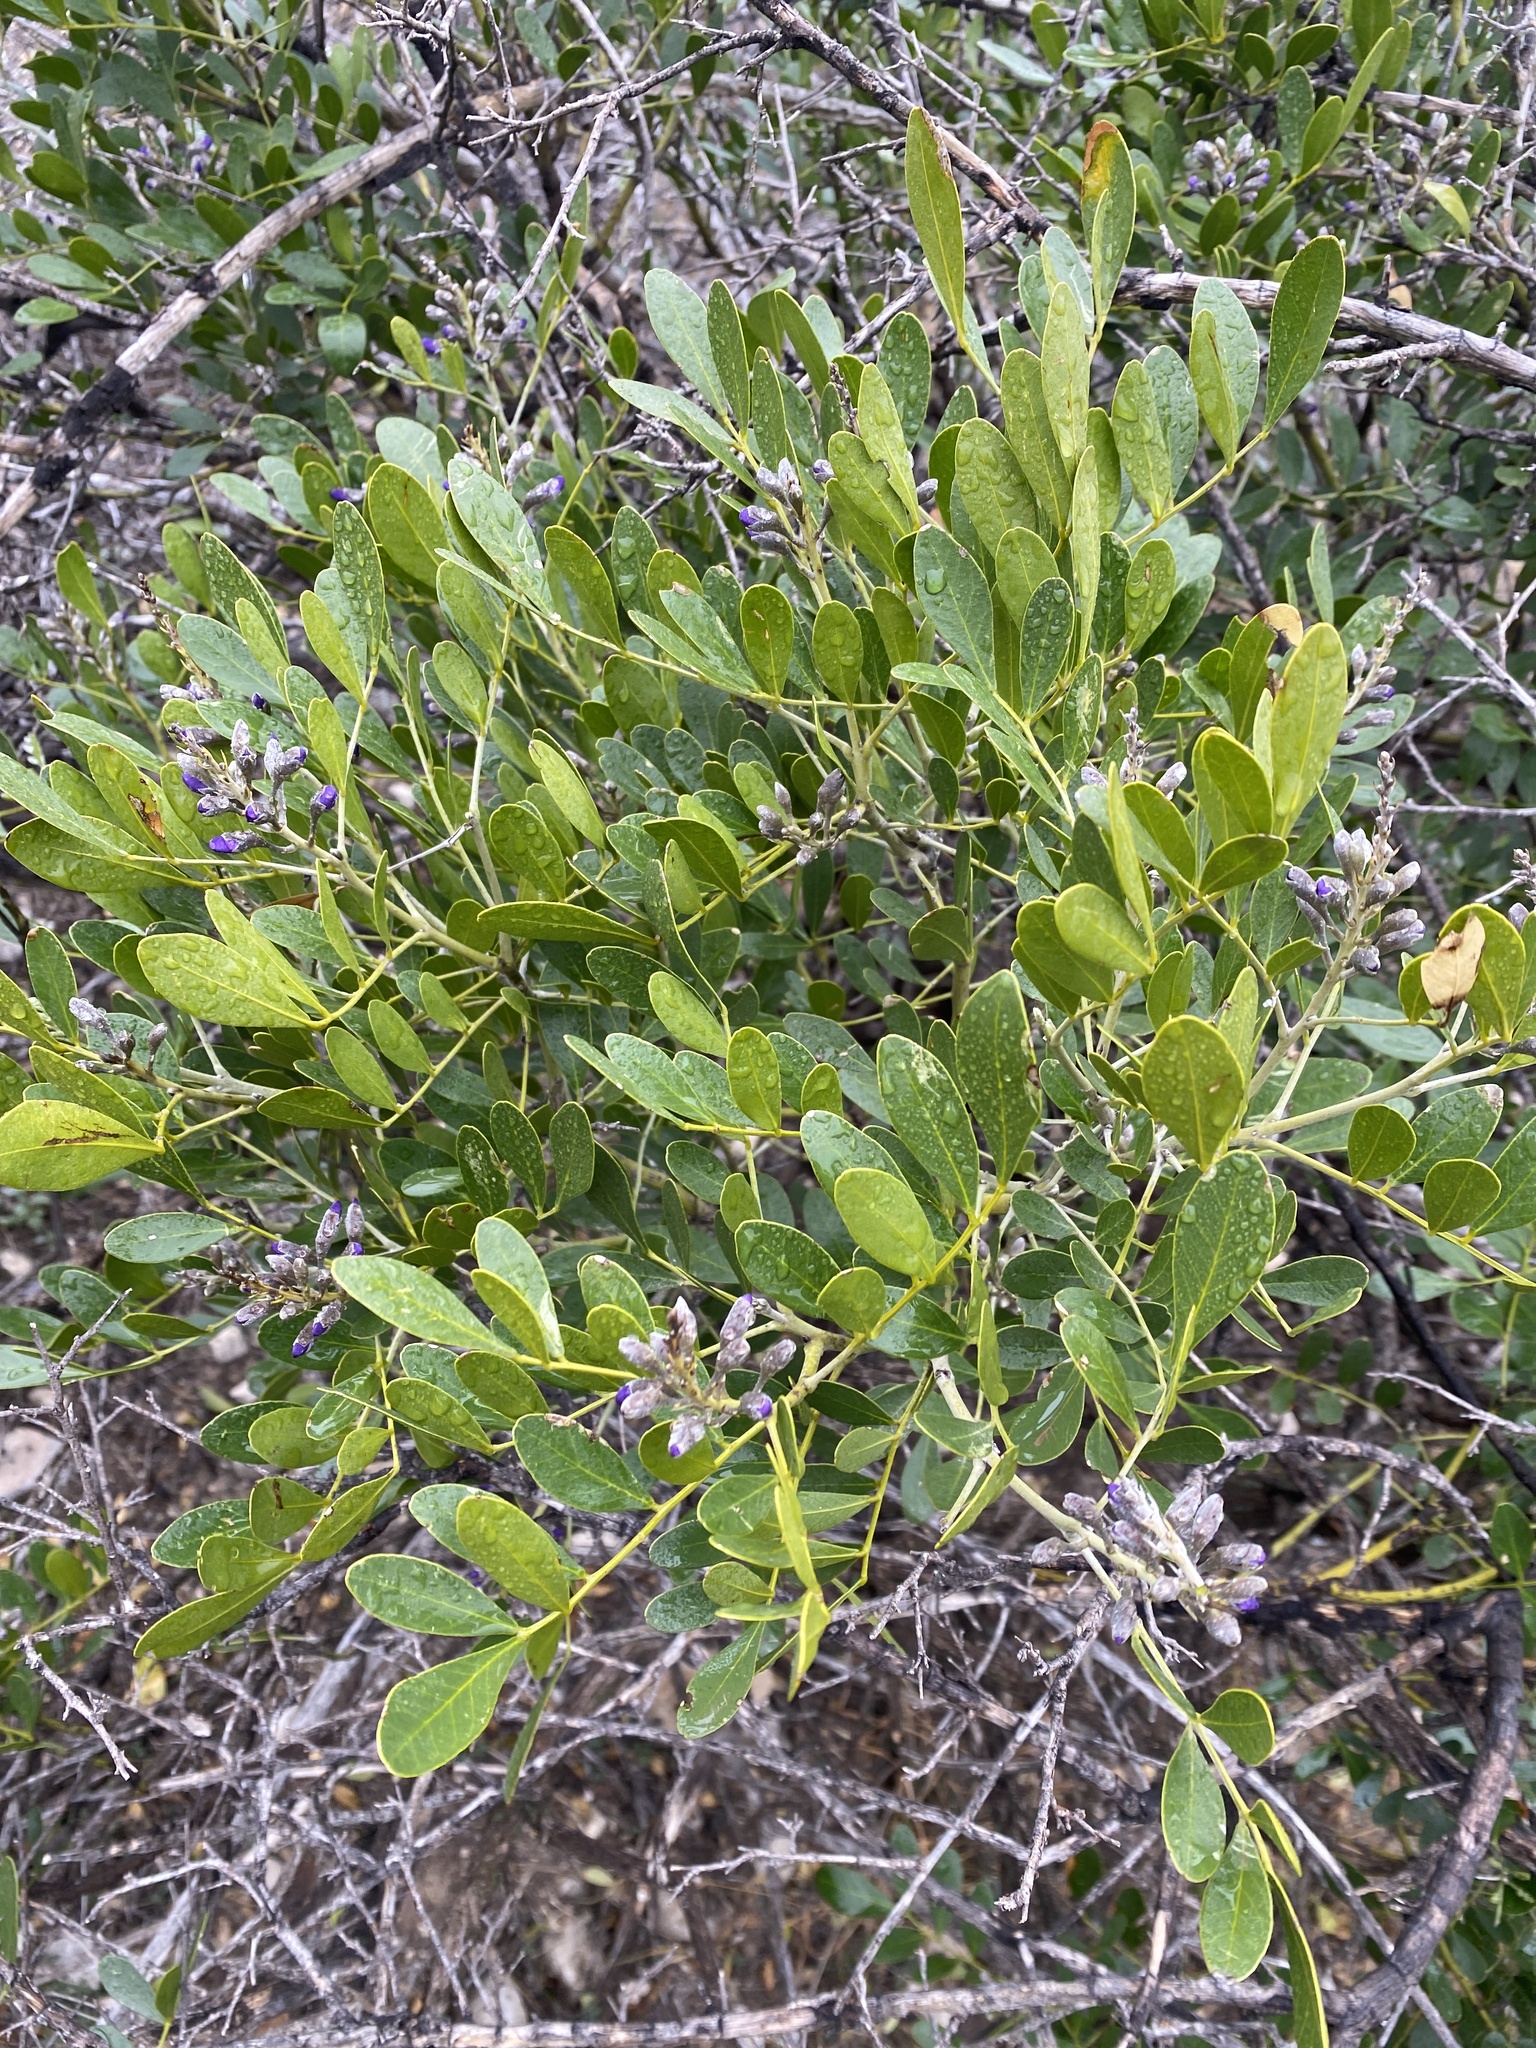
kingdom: Plantae
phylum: Tracheophyta
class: Magnoliopsida
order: Fabales
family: Fabaceae
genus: Dermatophyllum
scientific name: Dermatophyllum secundiflorum
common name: Texas-mountain-laurel
